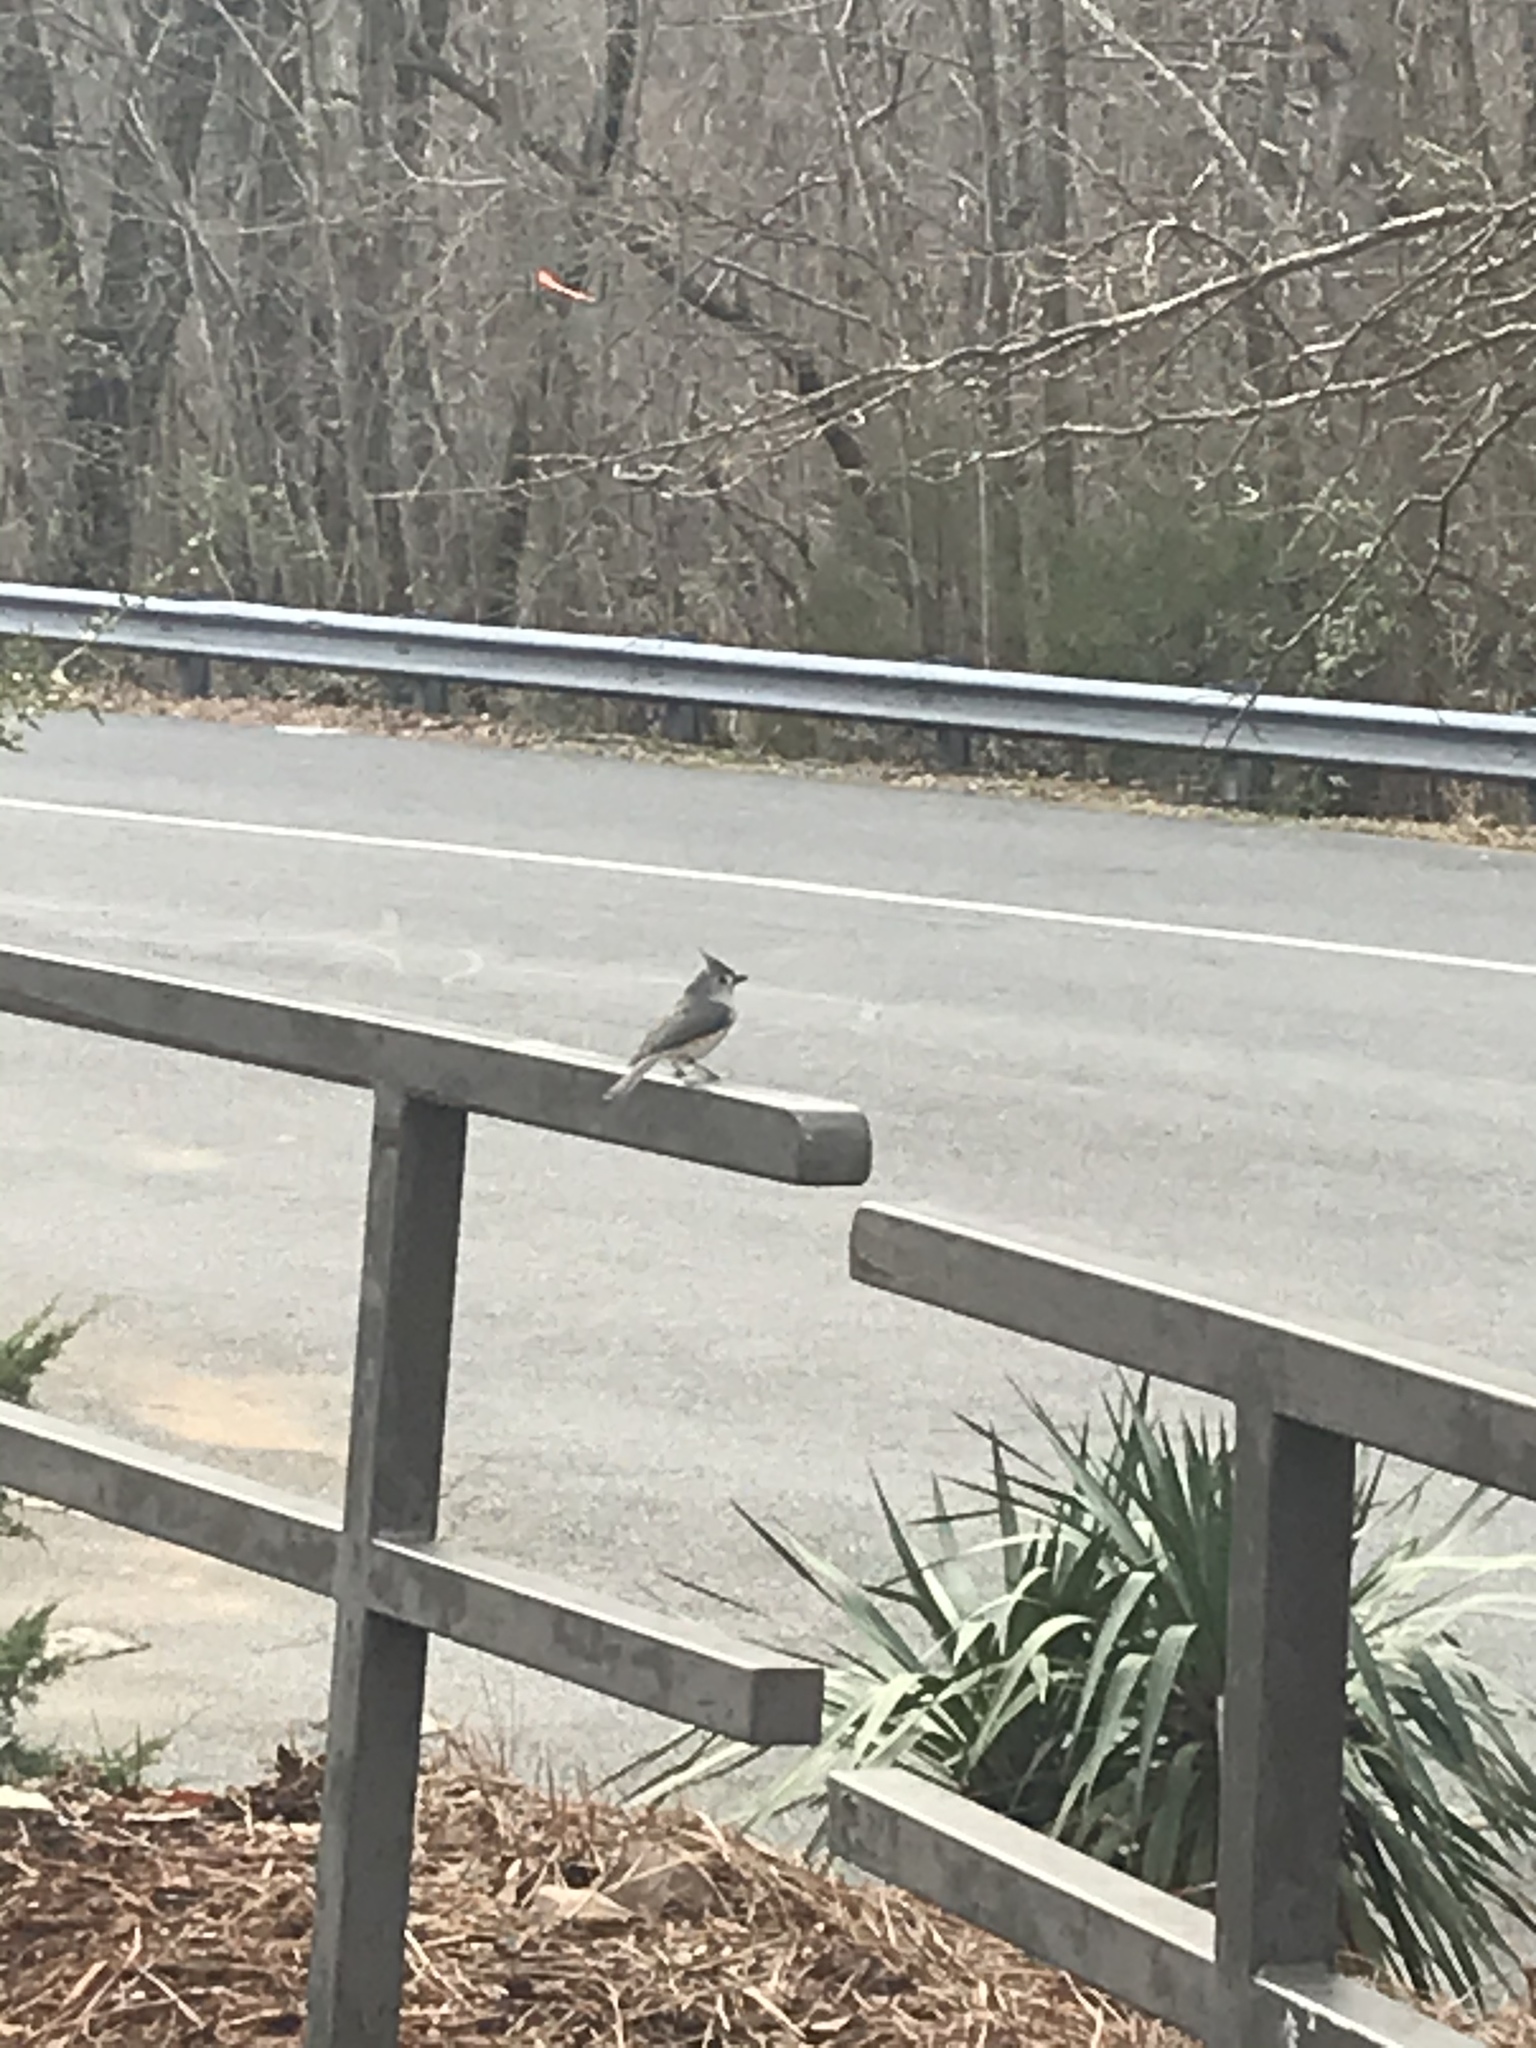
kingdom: Animalia
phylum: Chordata
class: Aves
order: Passeriformes
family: Paridae
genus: Baeolophus
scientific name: Baeolophus bicolor
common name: Tufted titmouse
